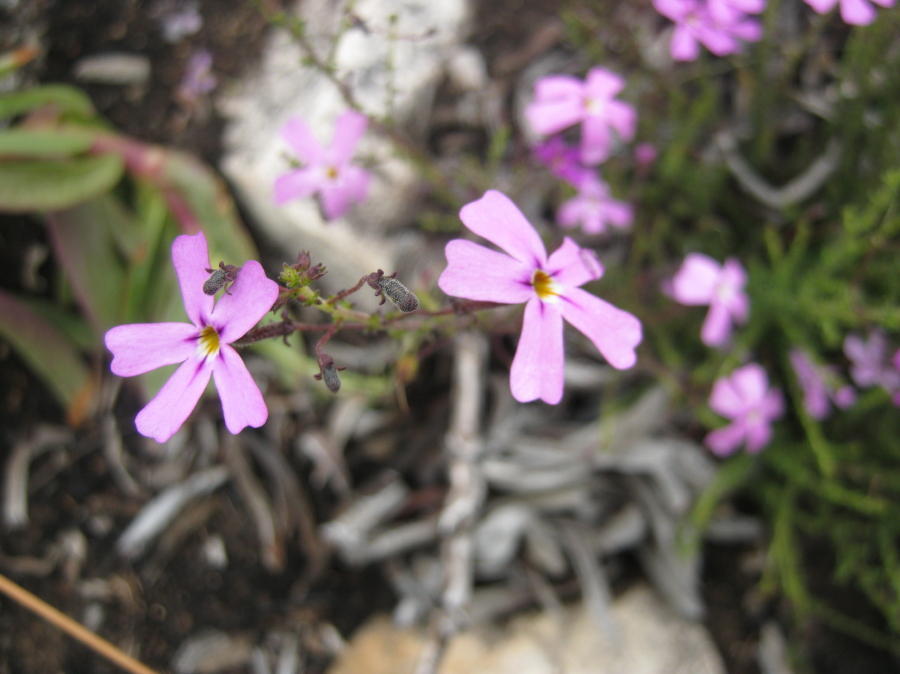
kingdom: Plantae
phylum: Tracheophyta
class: Magnoliopsida
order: Lamiales
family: Scrophulariaceae
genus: Jamesbrittenia
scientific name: Jamesbrittenia tortuosa
